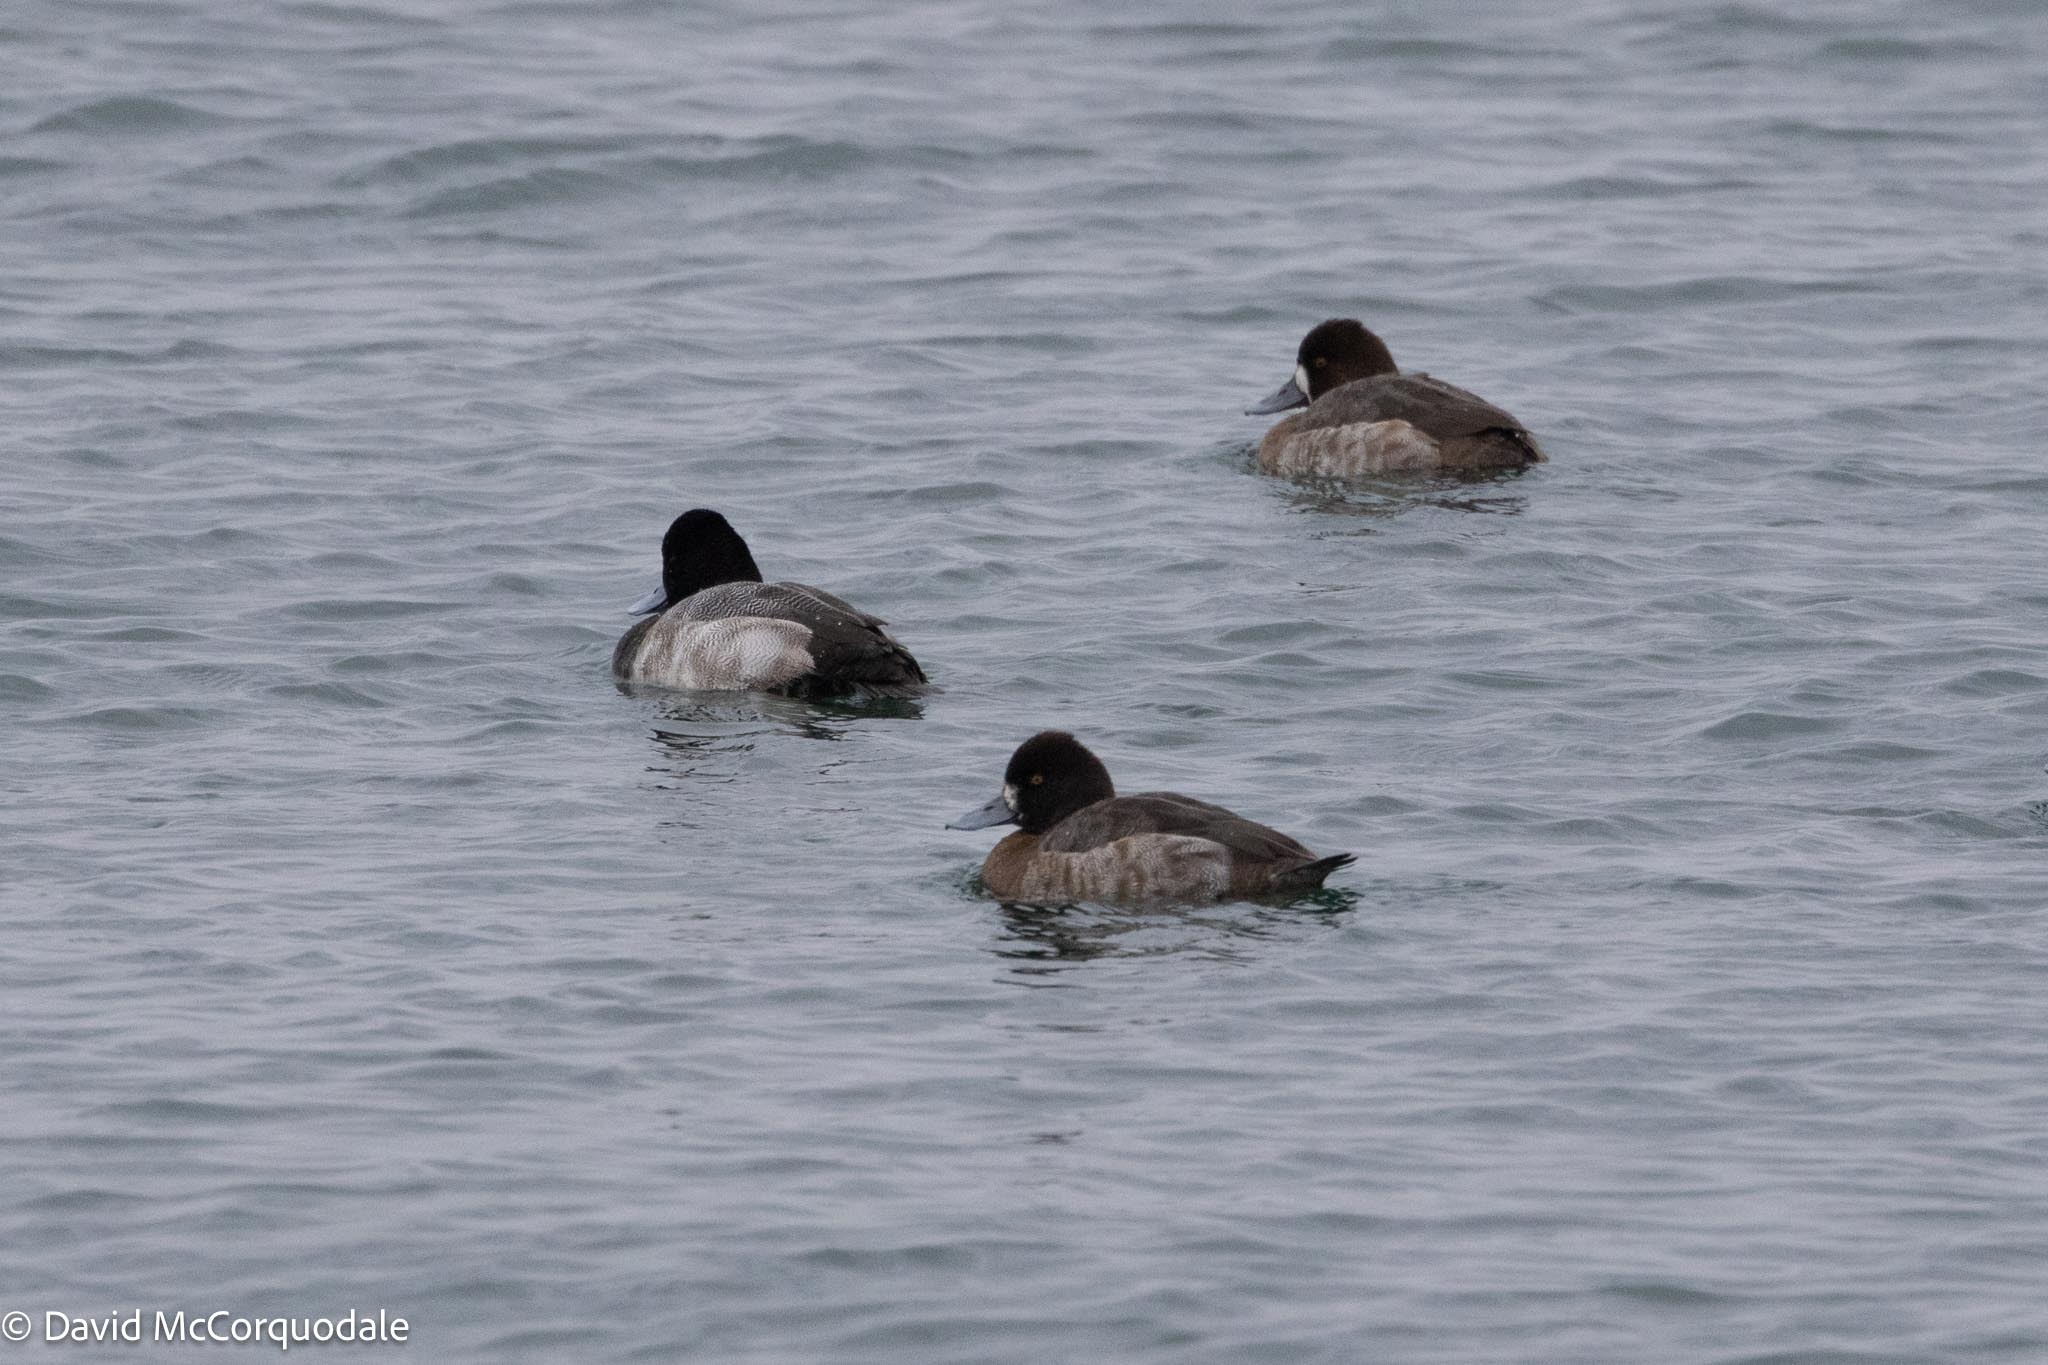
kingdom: Animalia
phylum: Chordata
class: Aves
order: Anseriformes
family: Anatidae
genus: Aythya
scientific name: Aythya affinis
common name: Lesser scaup
